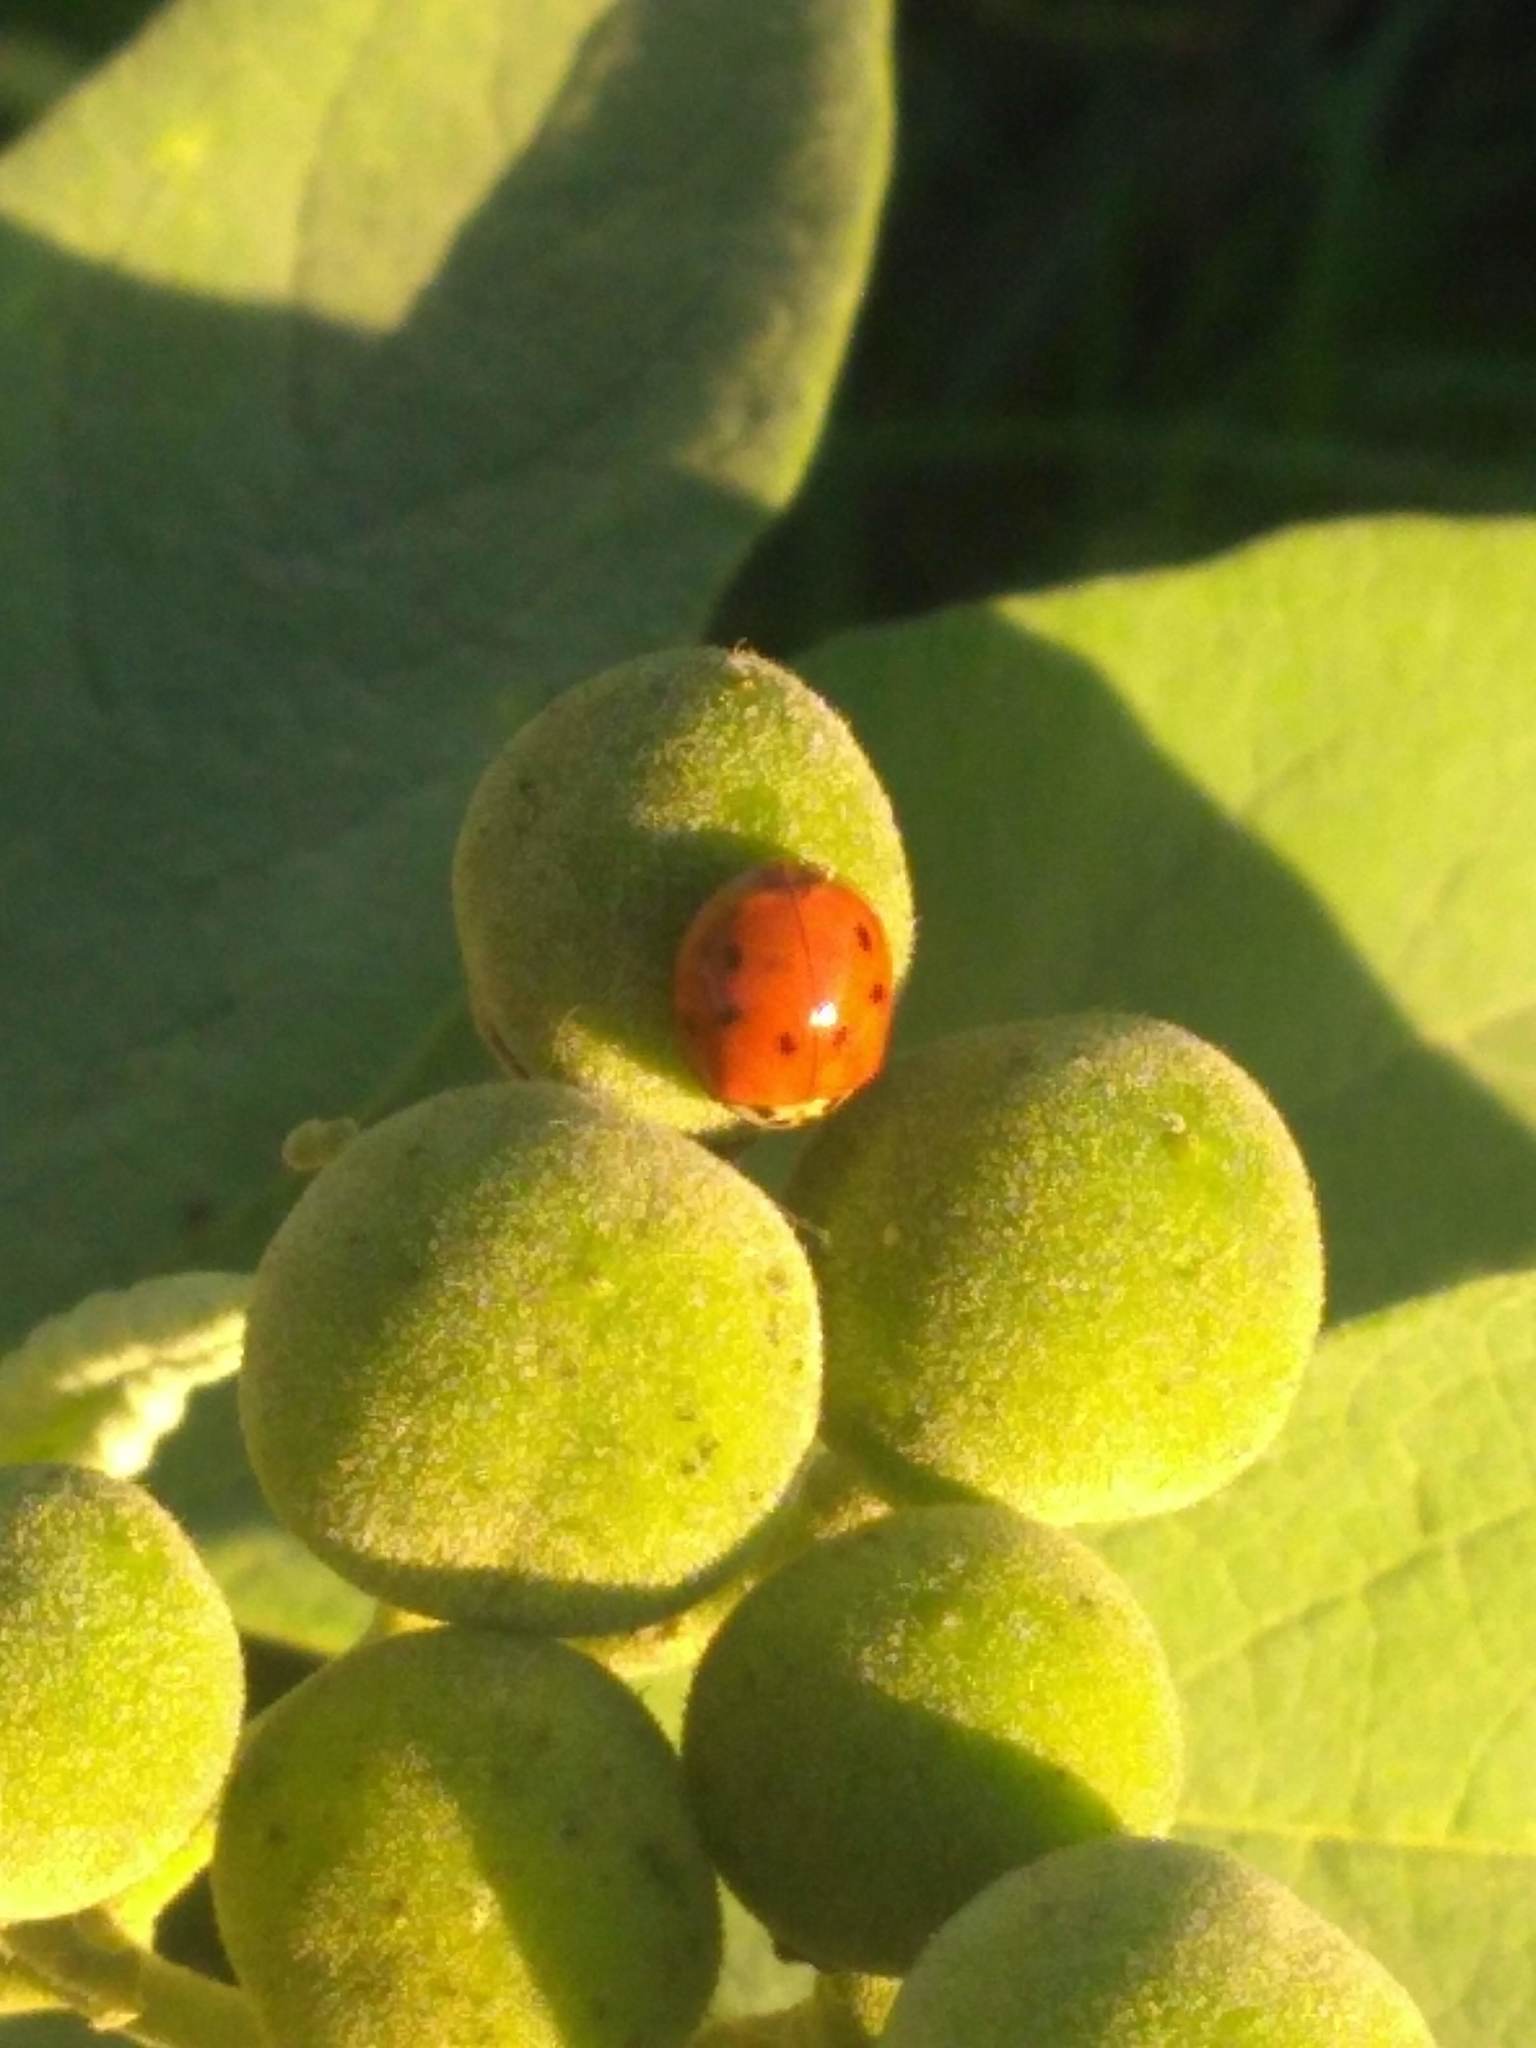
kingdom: Animalia
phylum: Arthropoda
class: Insecta
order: Coleoptera
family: Coccinellidae
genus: Harmonia
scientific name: Harmonia axyridis
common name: Harlequin ladybird
